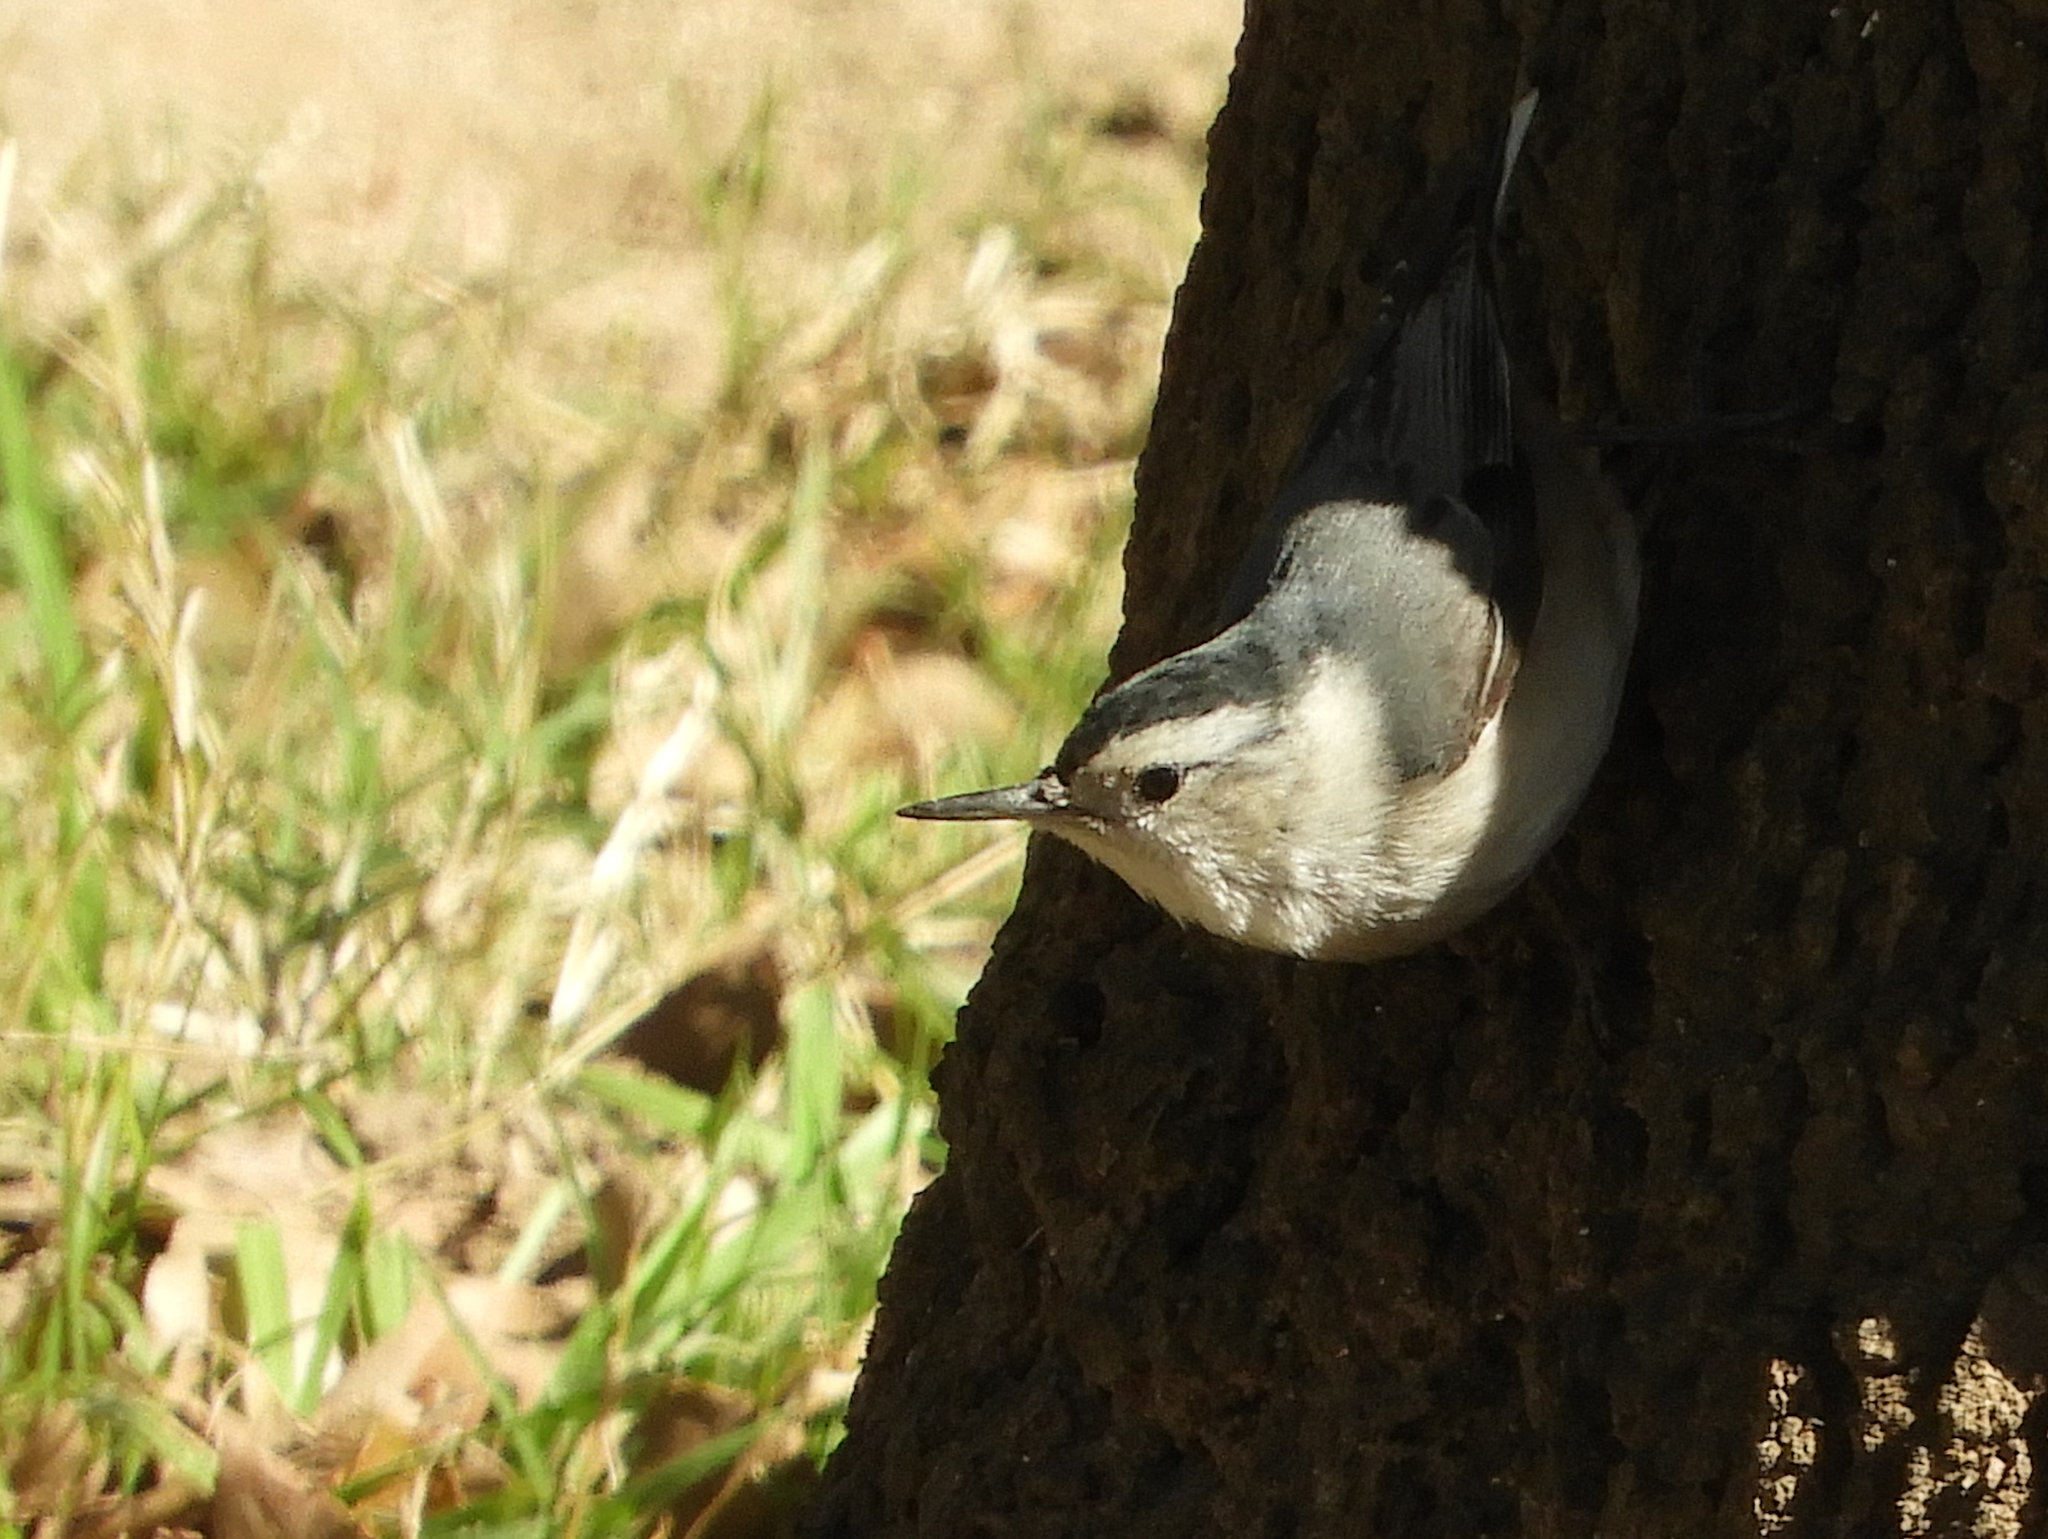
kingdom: Animalia
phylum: Chordata
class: Aves
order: Passeriformes
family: Sittidae
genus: Sitta
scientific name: Sitta carolinensis
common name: White-breasted nuthatch
